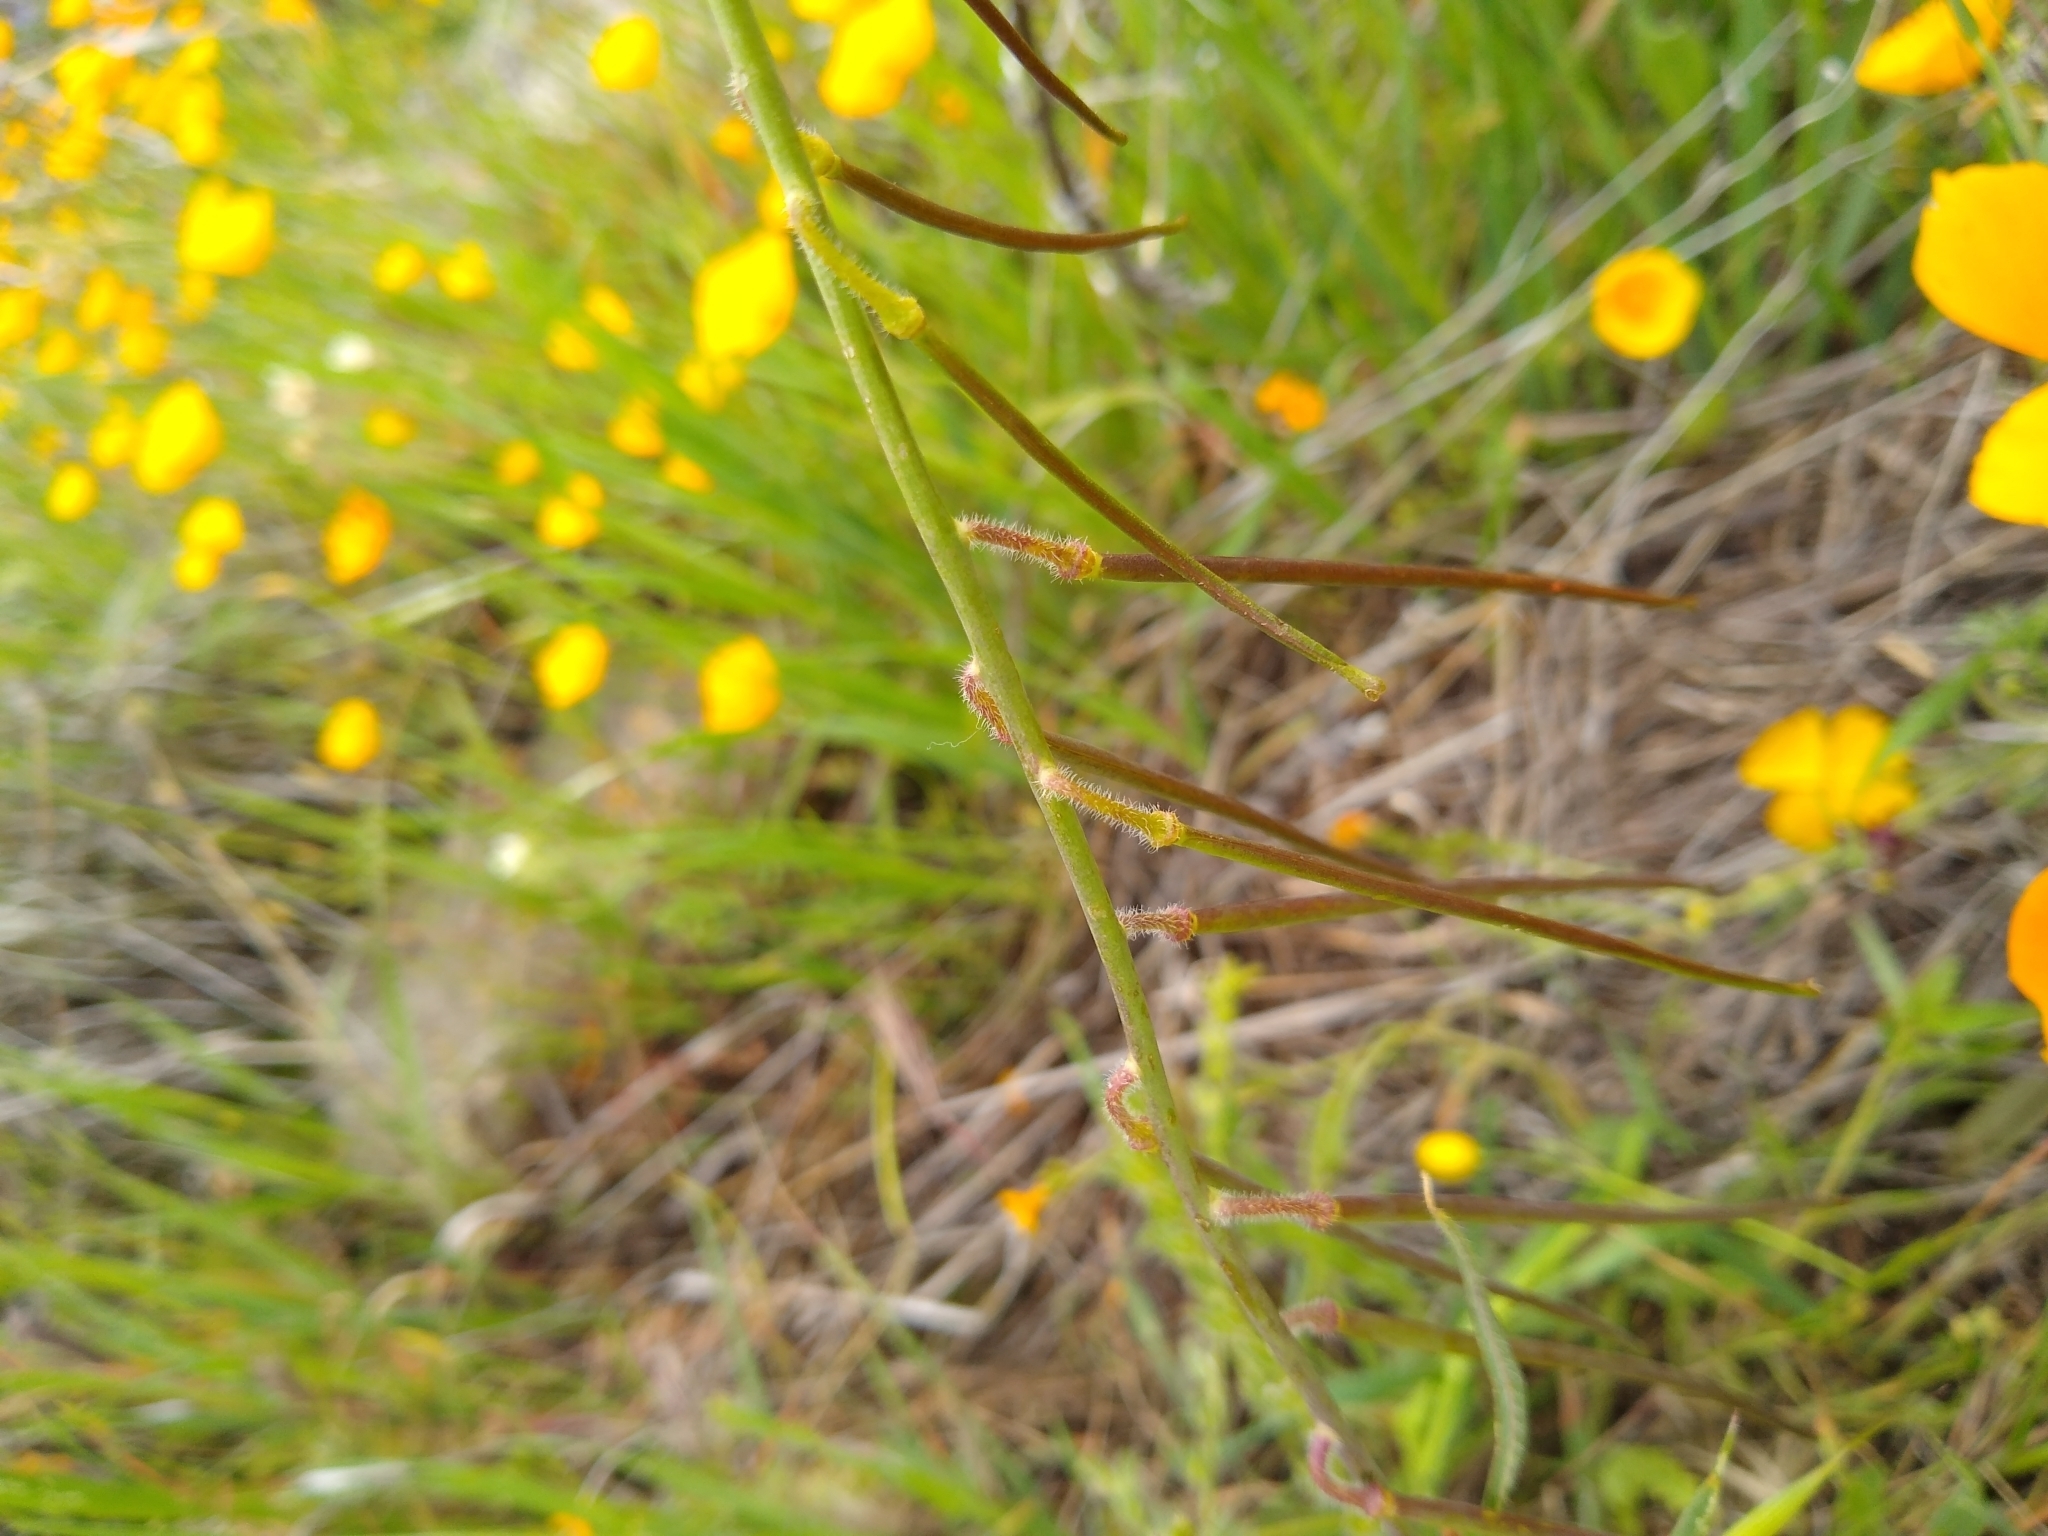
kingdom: Plantae
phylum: Tracheophyta
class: Magnoliopsida
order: Brassicales
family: Brassicaceae
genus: Streptanthus
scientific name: Streptanthus coulteri
